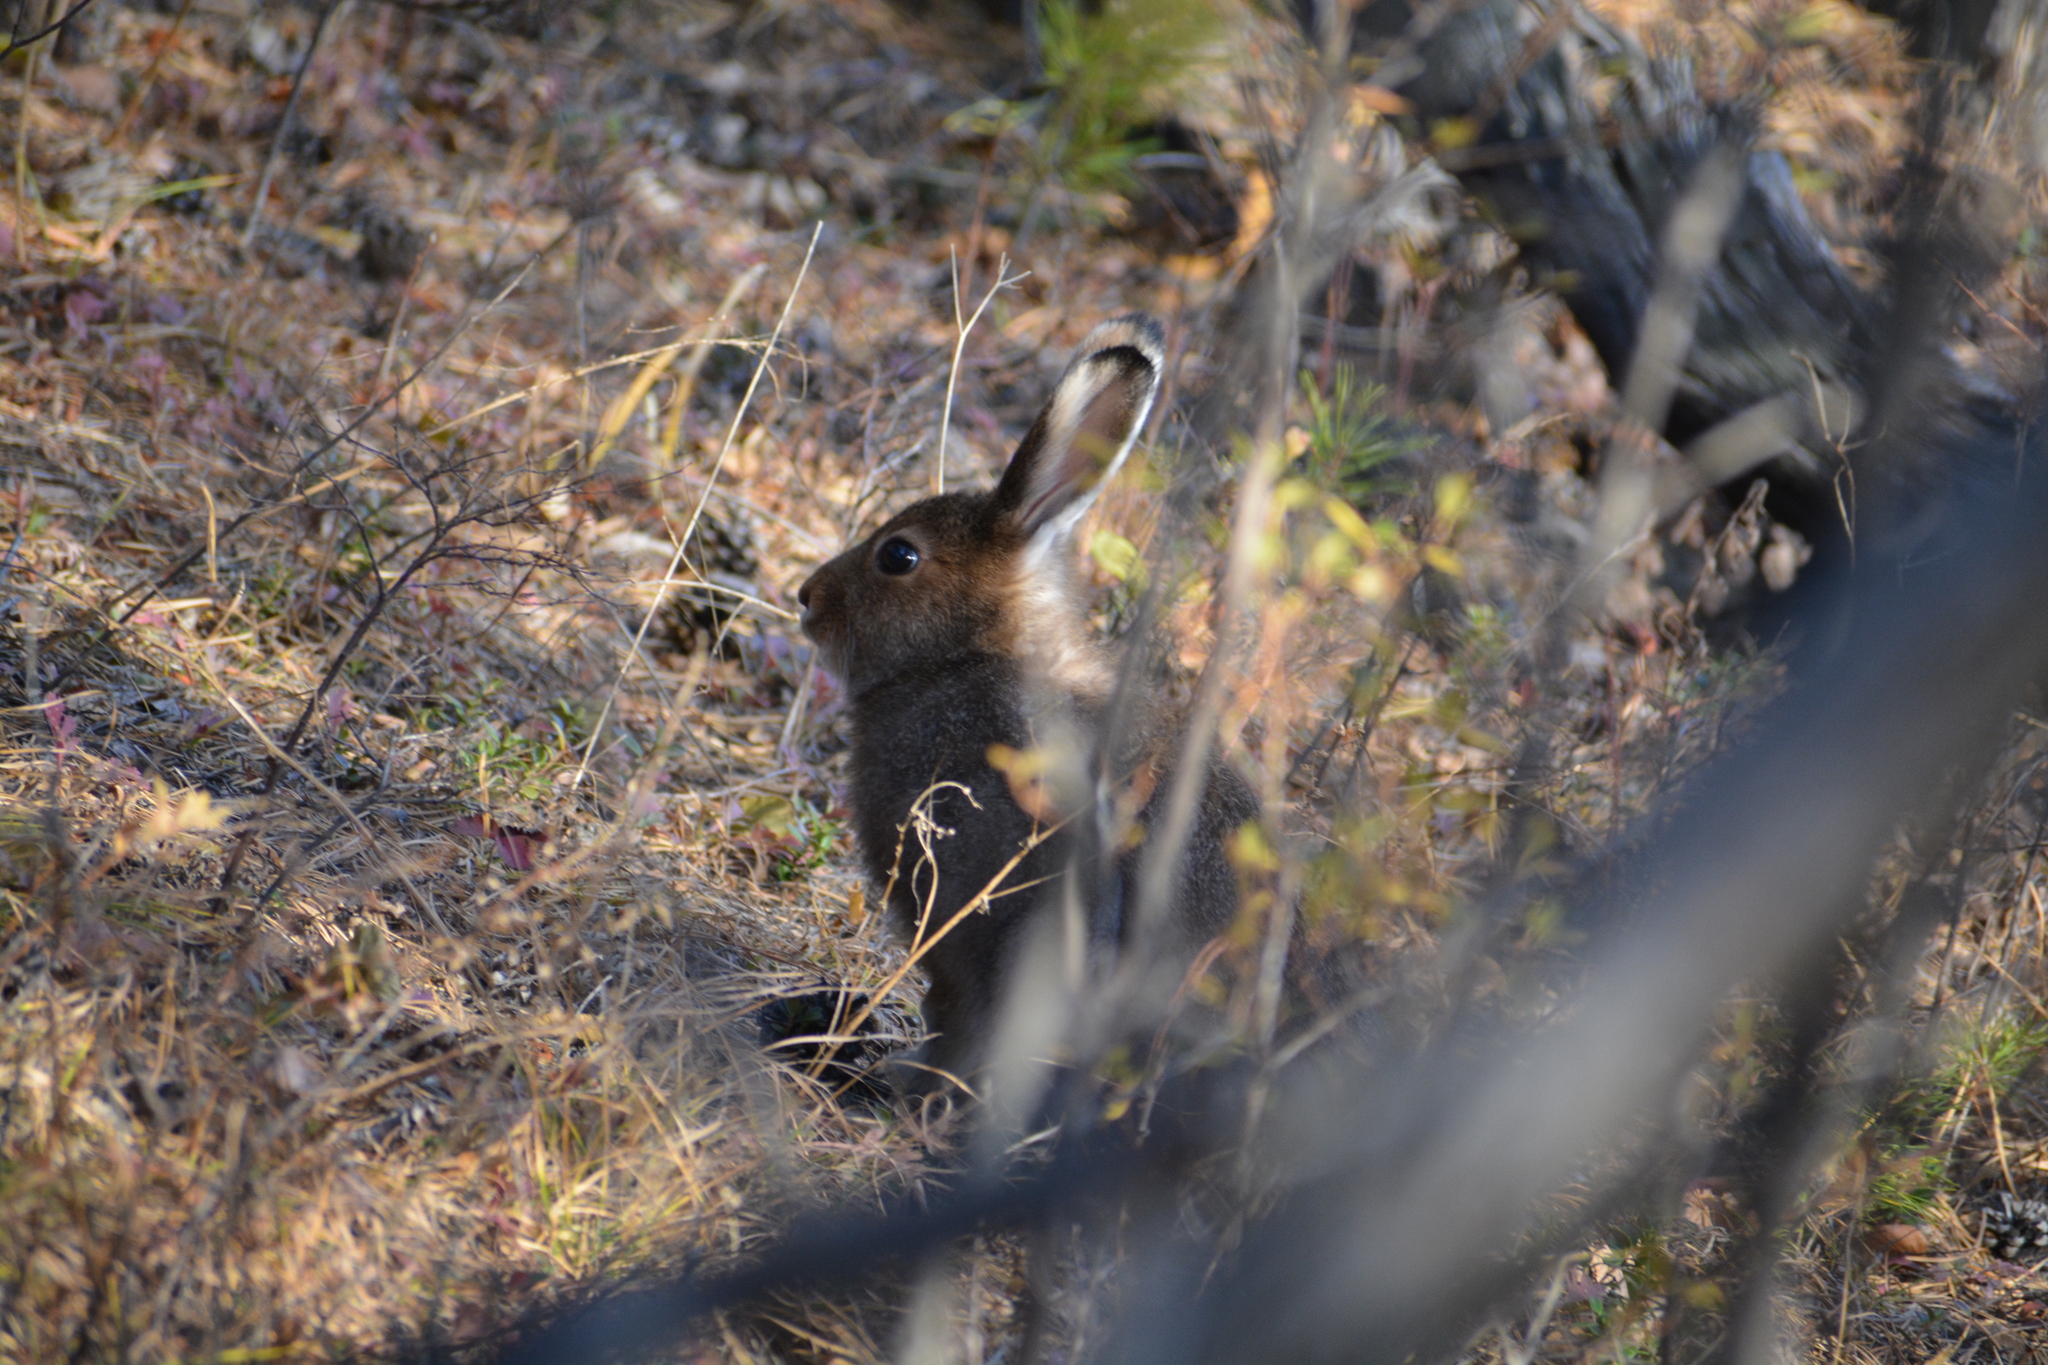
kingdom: Animalia
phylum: Chordata
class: Mammalia
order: Lagomorpha
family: Leporidae
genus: Lepus
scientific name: Lepus timidus
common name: Mountain hare
